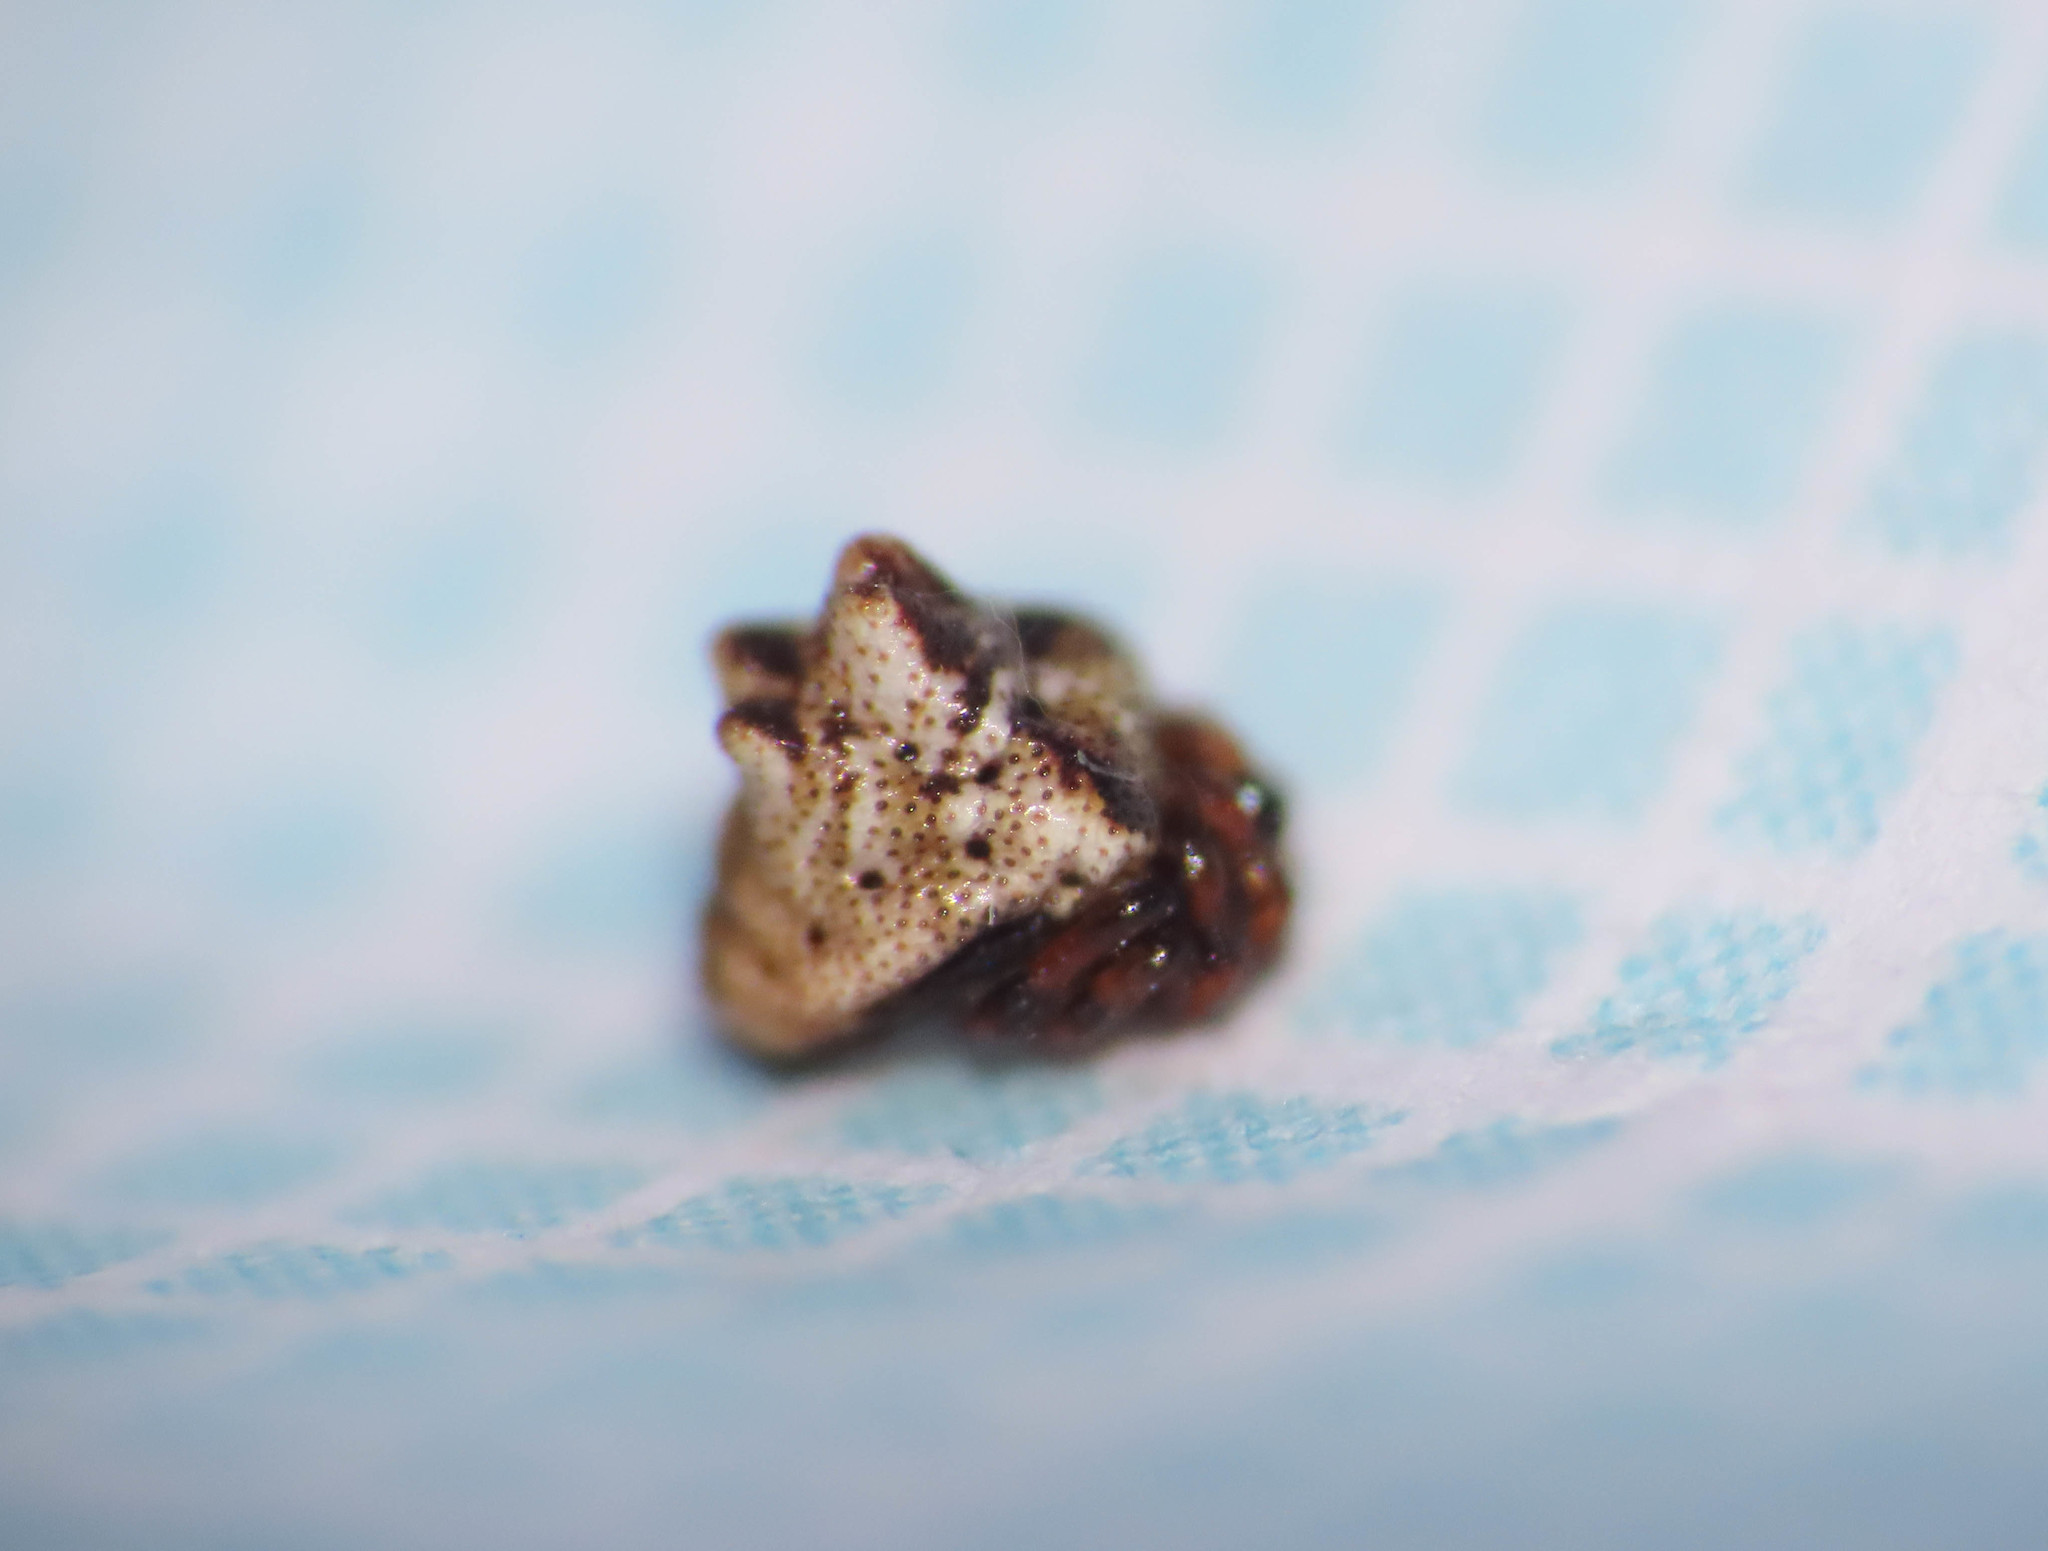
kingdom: Animalia
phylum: Arthropoda
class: Arachnida
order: Araneae
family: Theridiidae
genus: Phoroncidia
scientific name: Phoroncidia paradoxa
